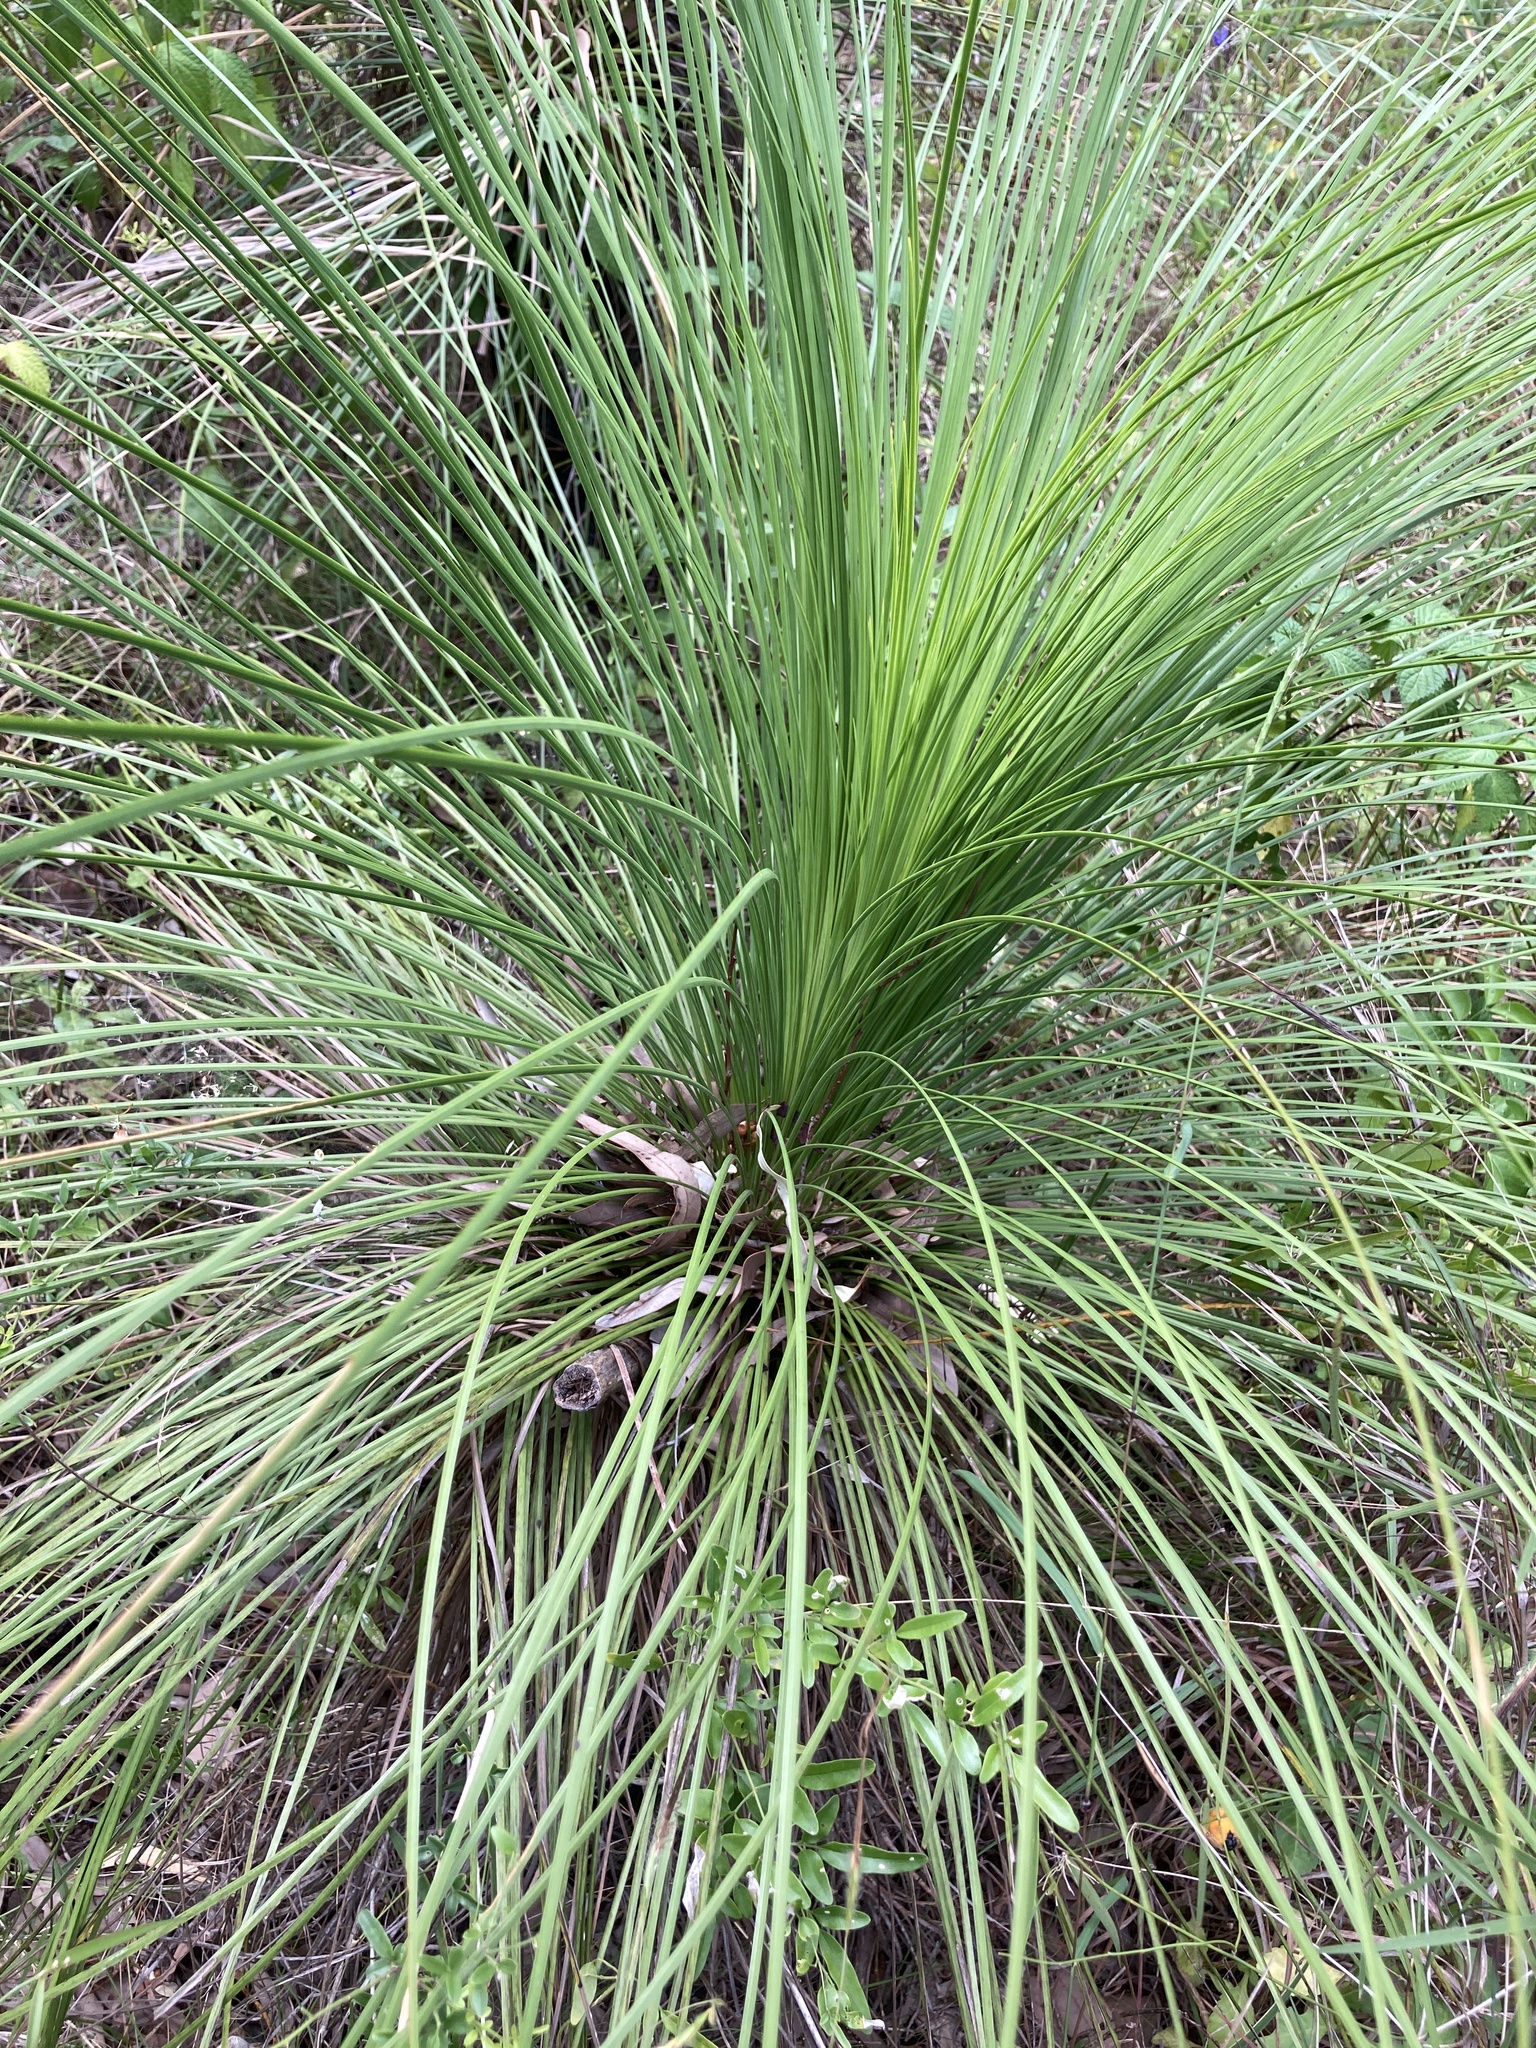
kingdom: Plantae
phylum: Tracheophyta
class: Liliopsida
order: Asparagales
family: Asphodelaceae
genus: Xanthorrhoea
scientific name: Xanthorrhoea latifolia
